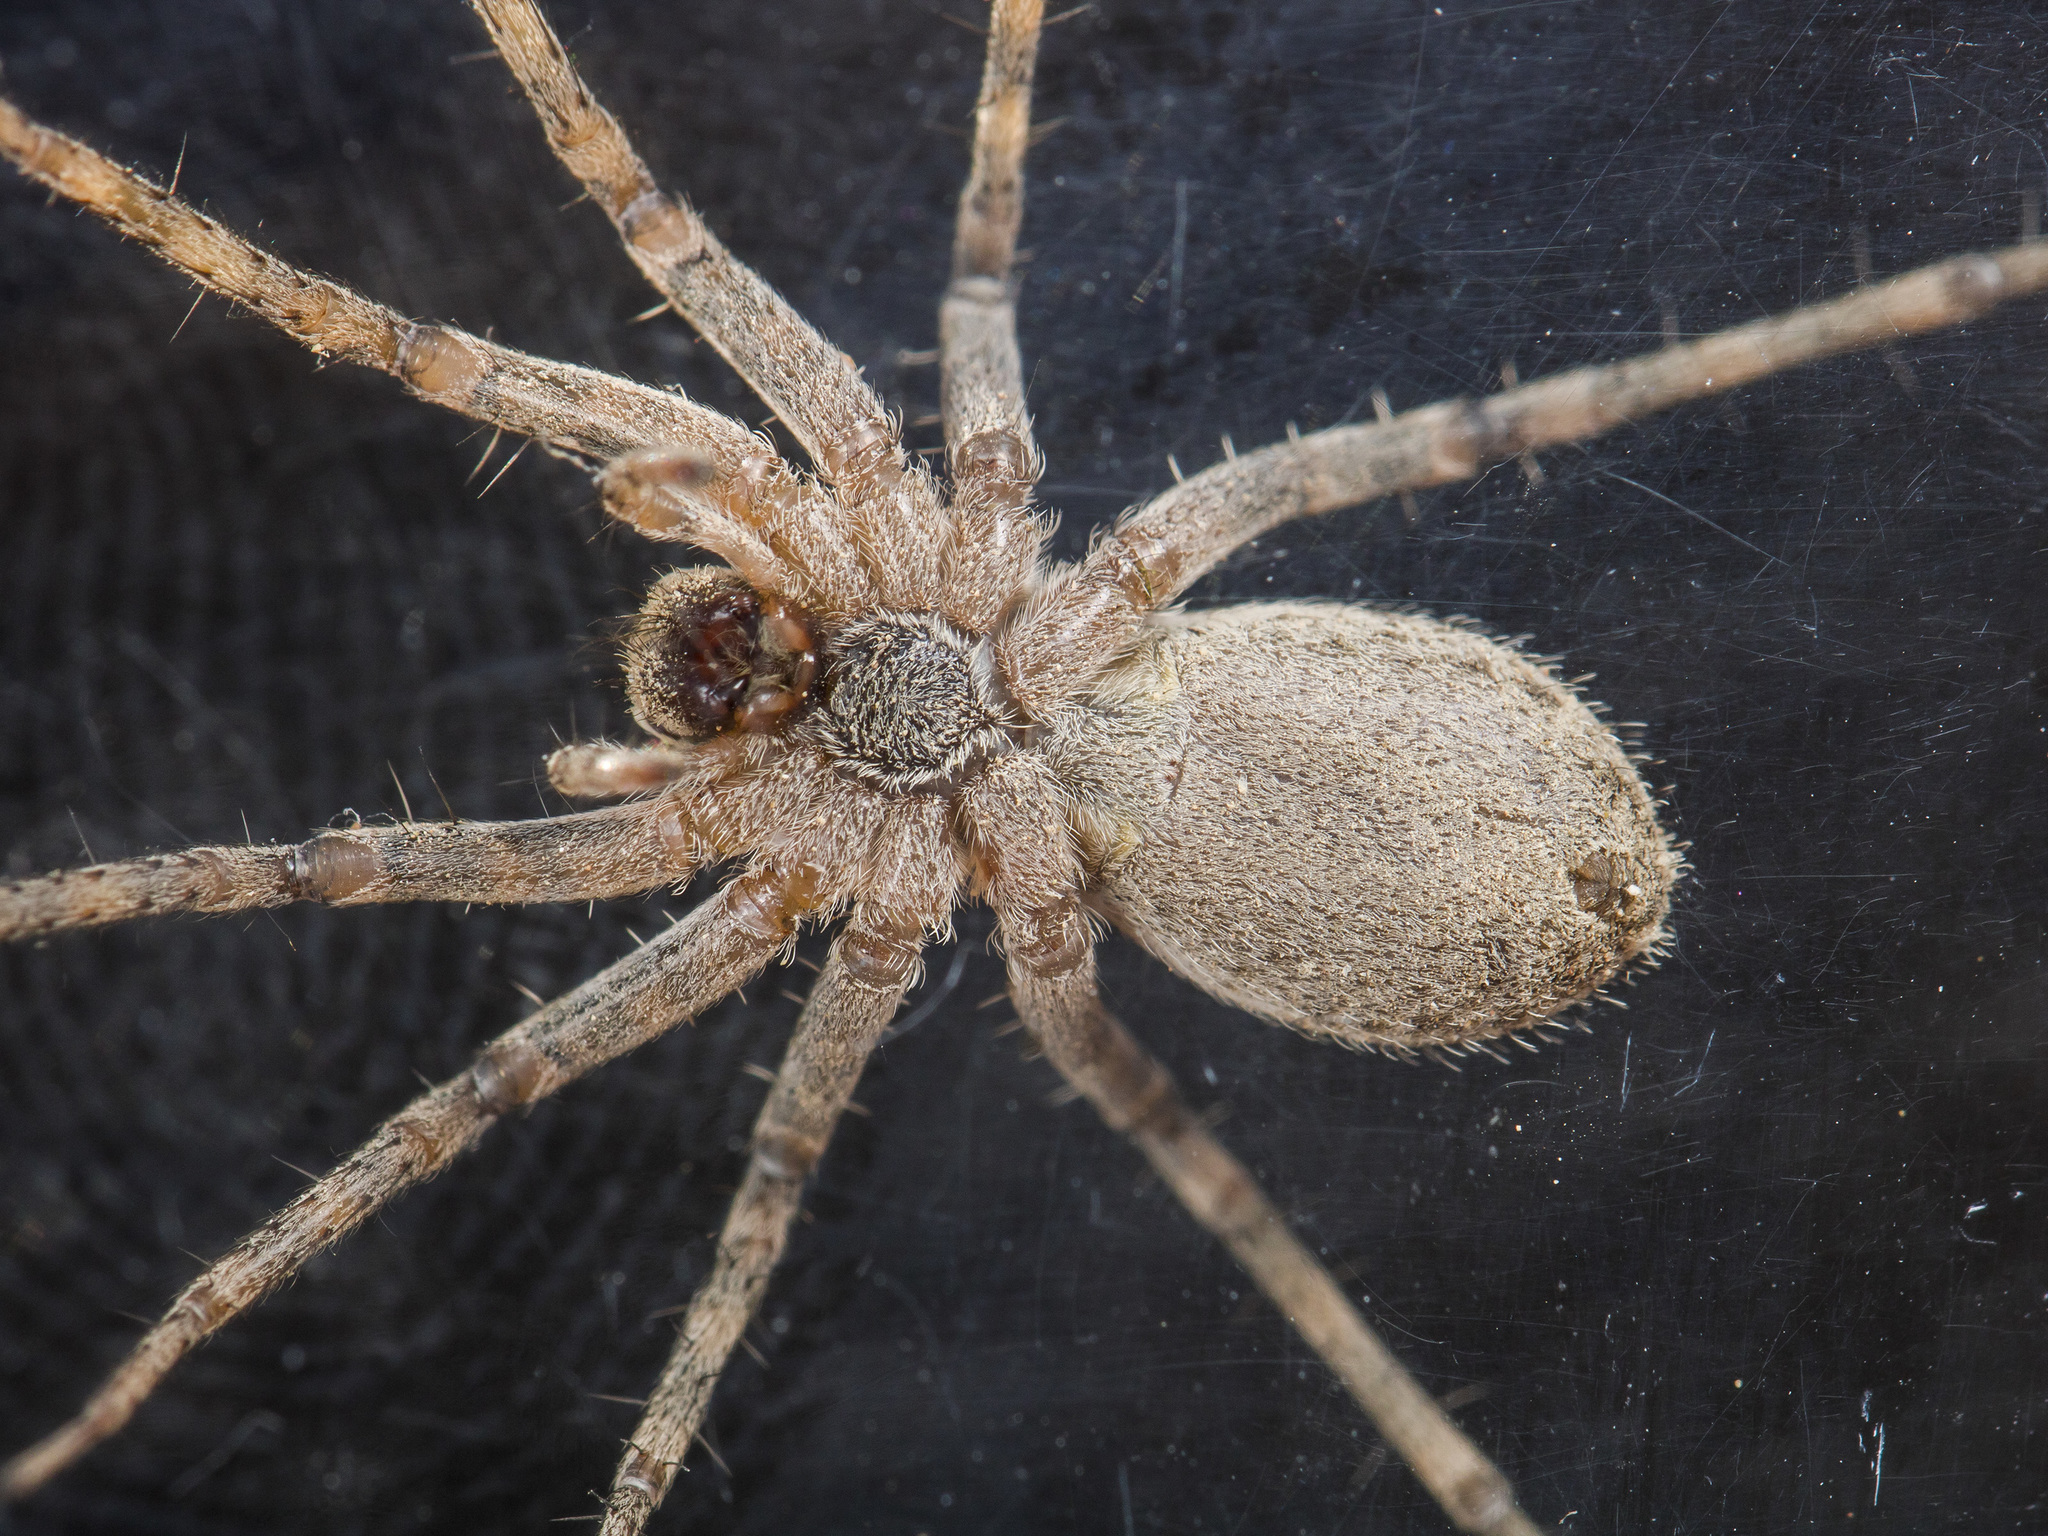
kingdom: Animalia
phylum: Arthropoda
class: Arachnida
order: Araneae
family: Lycosidae
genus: Evippa
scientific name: Evippa sjostedti
